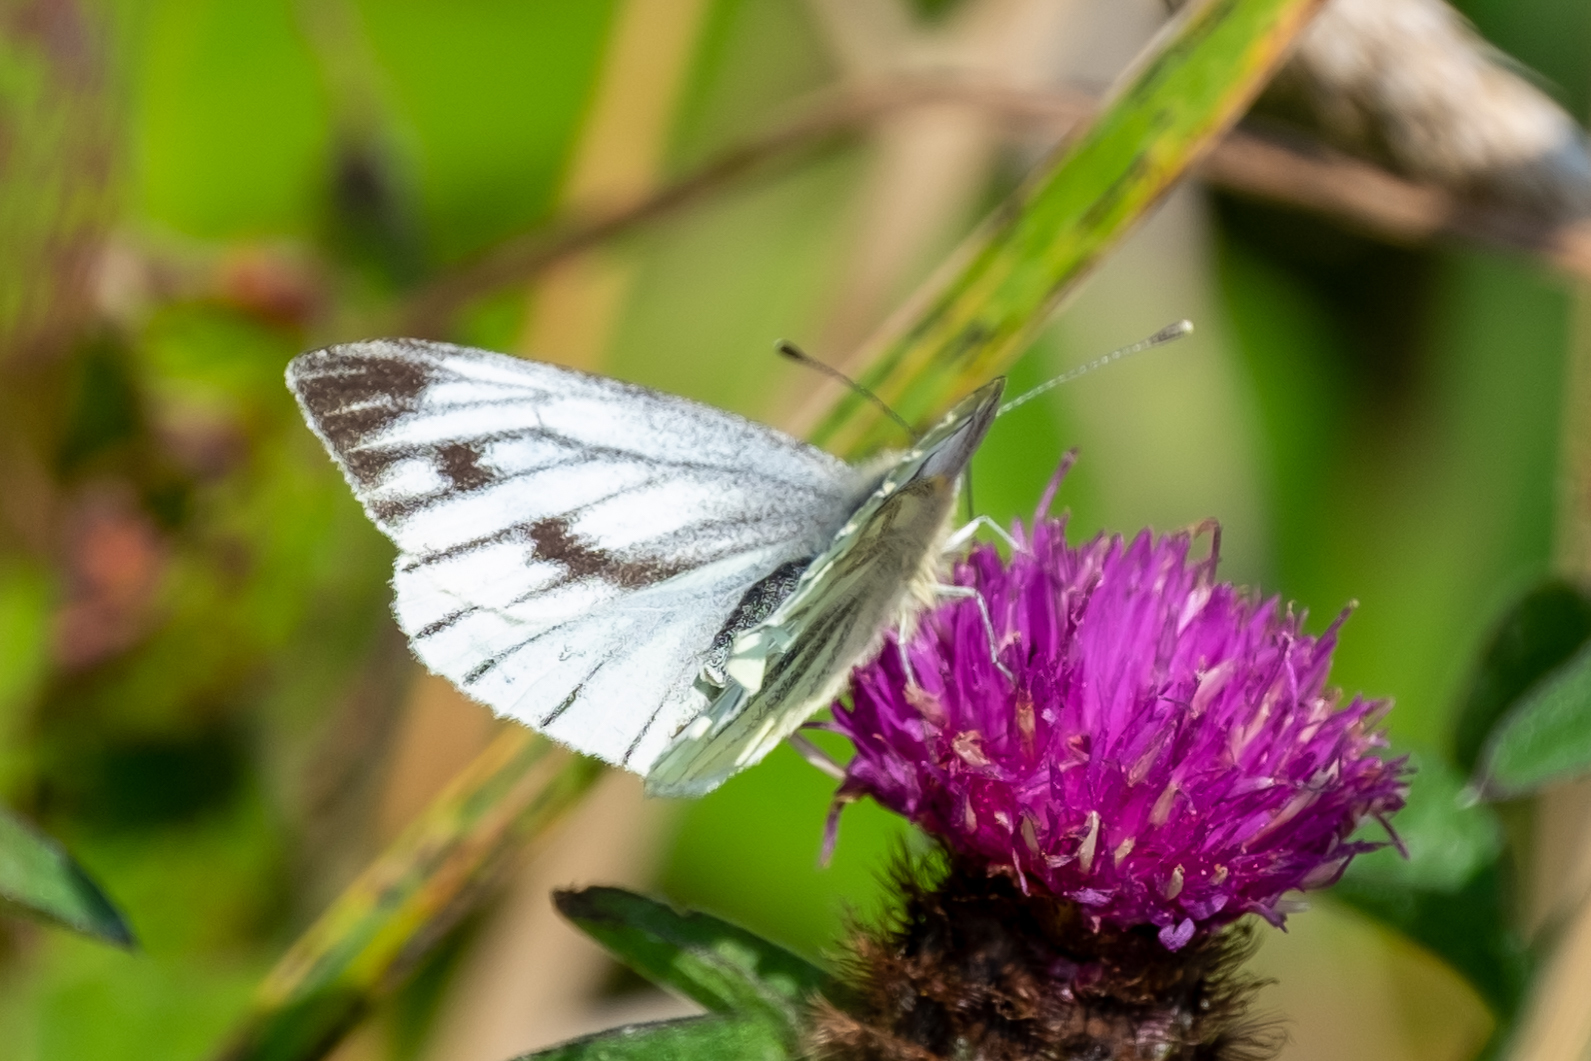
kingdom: Animalia
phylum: Arthropoda
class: Insecta
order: Lepidoptera
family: Pieridae
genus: Pieris
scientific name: Pieris napi
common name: Green-veined white
